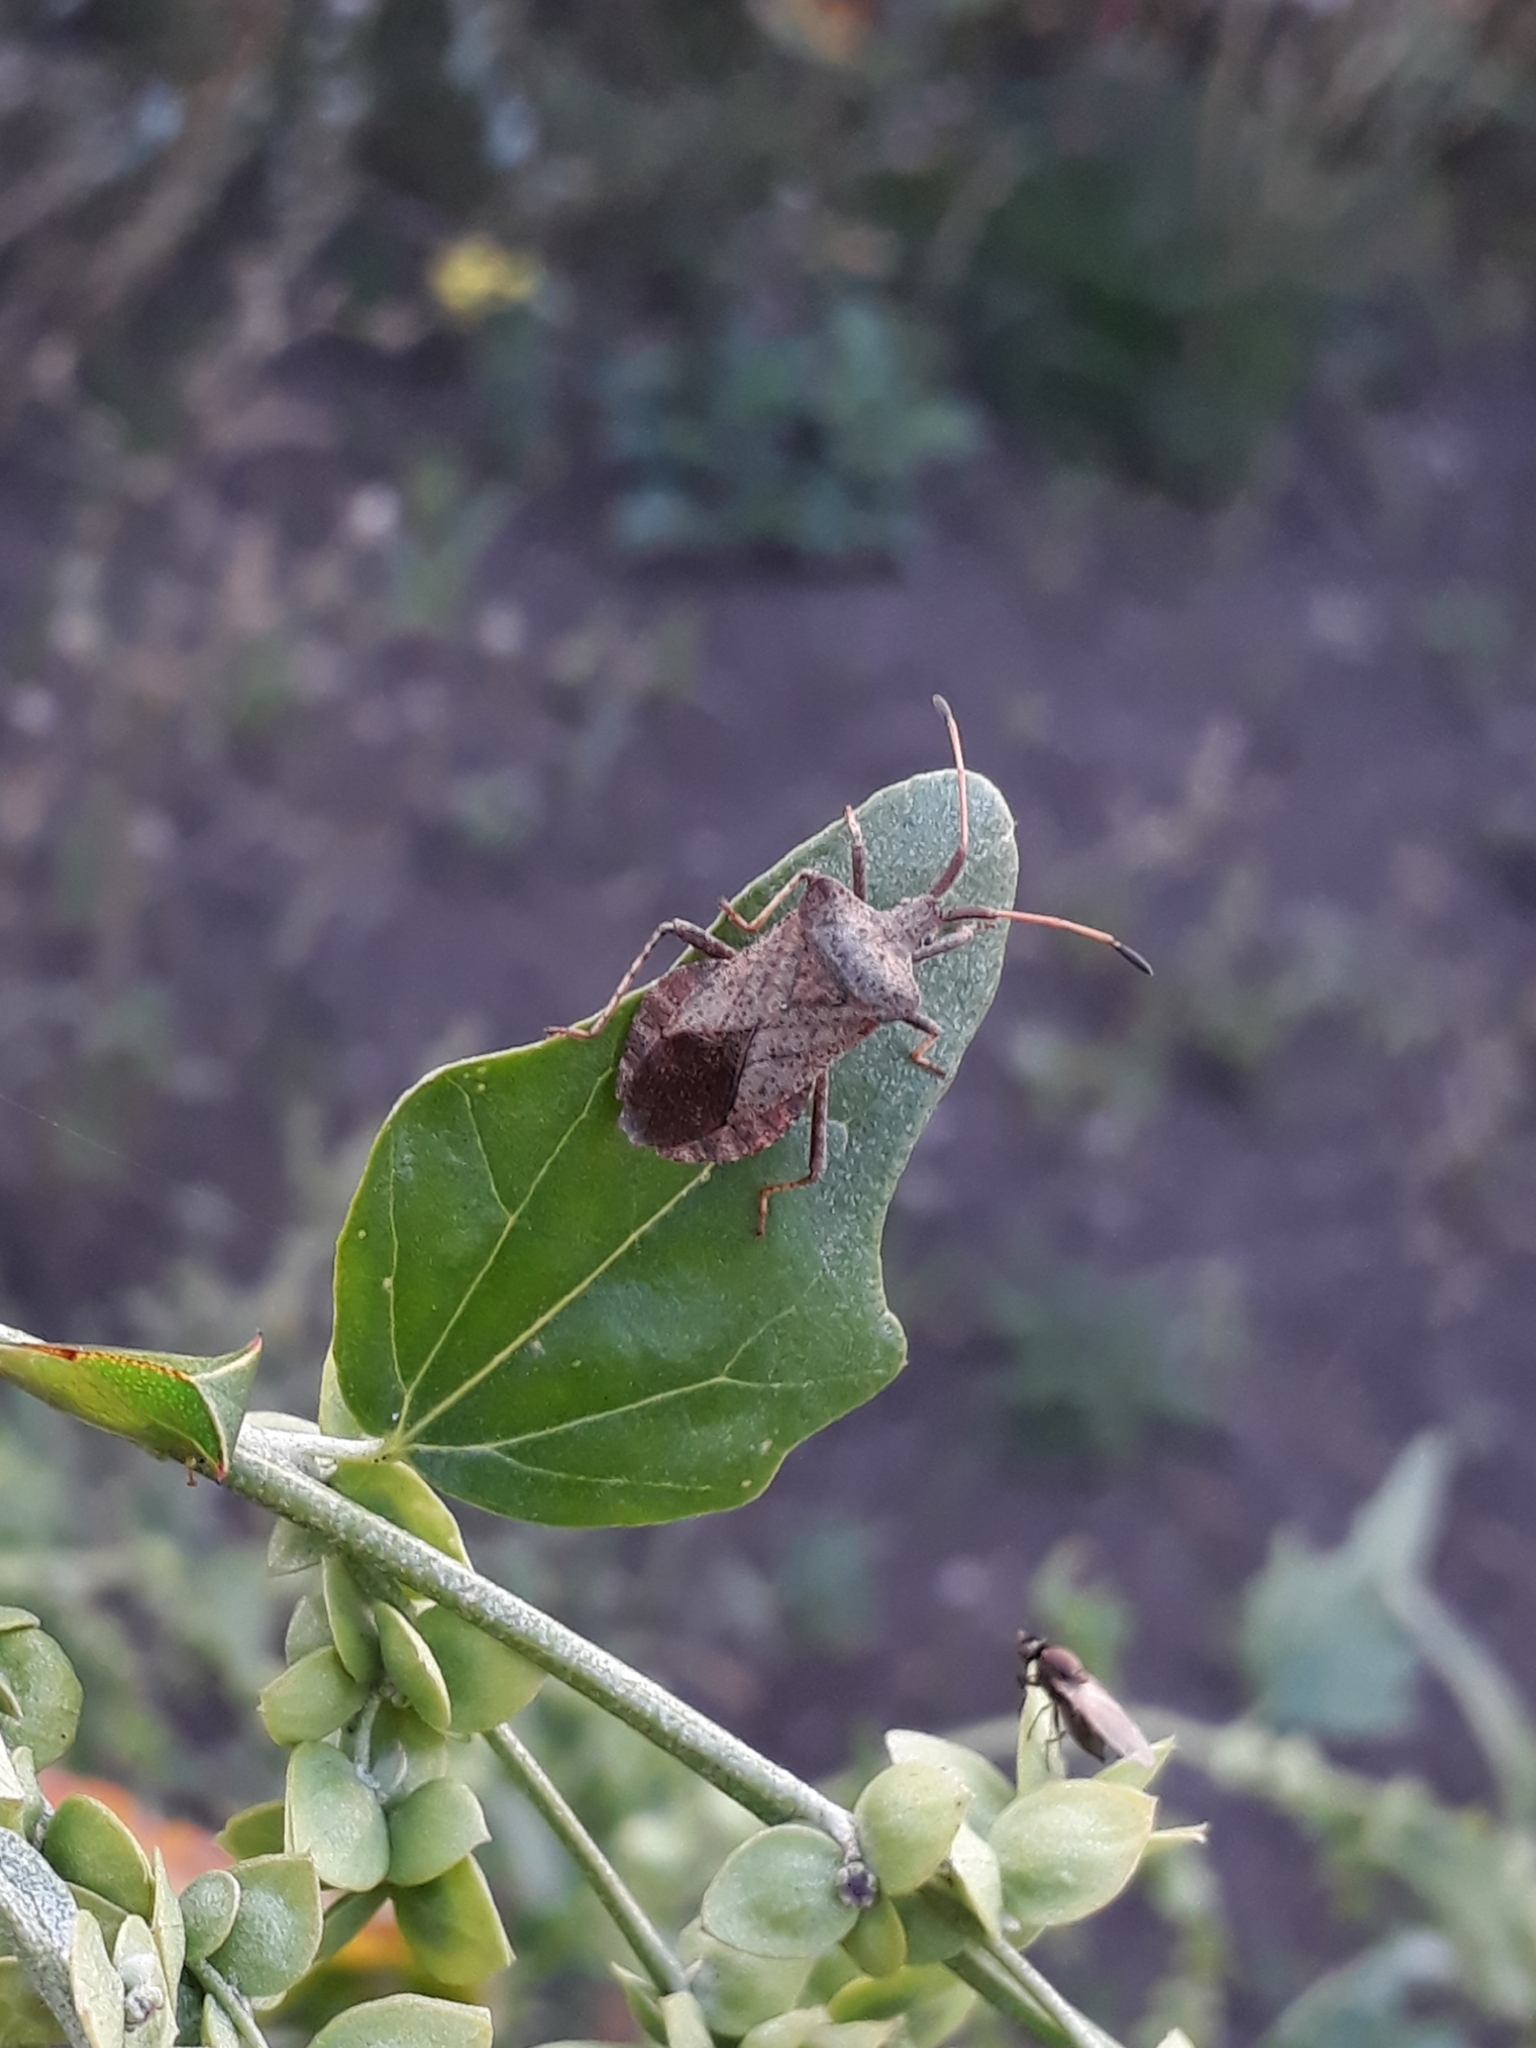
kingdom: Animalia
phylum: Arthropoda
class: Insecta
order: Hemiptera
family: Coreidae
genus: Coreus
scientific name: Coreus marginatus
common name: Dock bug
